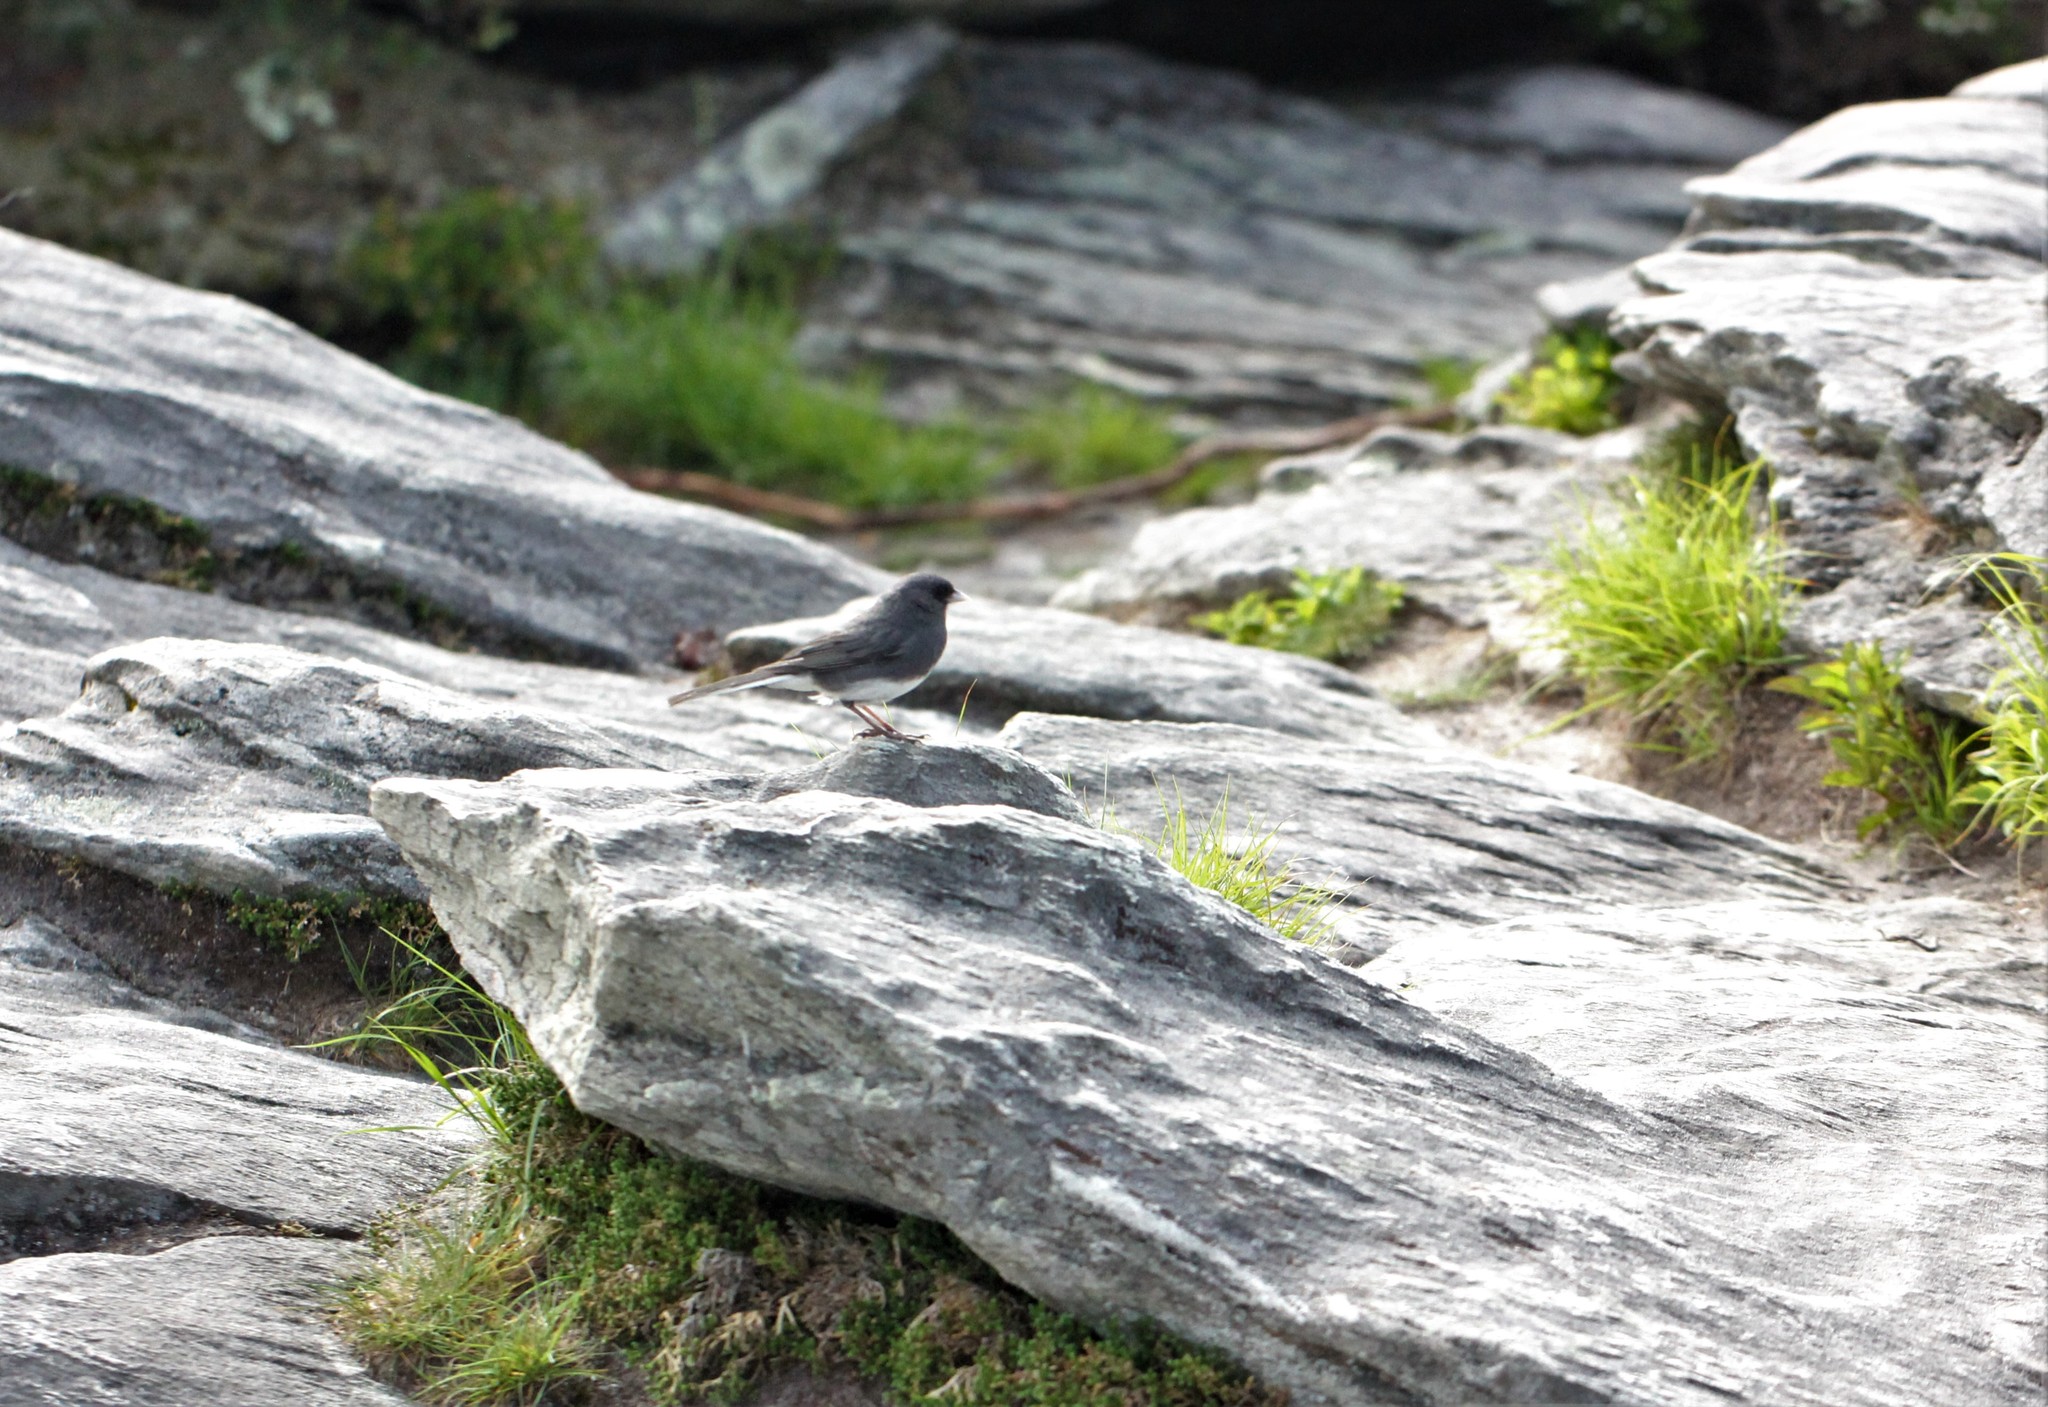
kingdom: Animalia
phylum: Chordata
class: Aves
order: Passeriformes
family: Passerellidae
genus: Junco
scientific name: Junco hyemalis
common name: Dark-eyed junco
